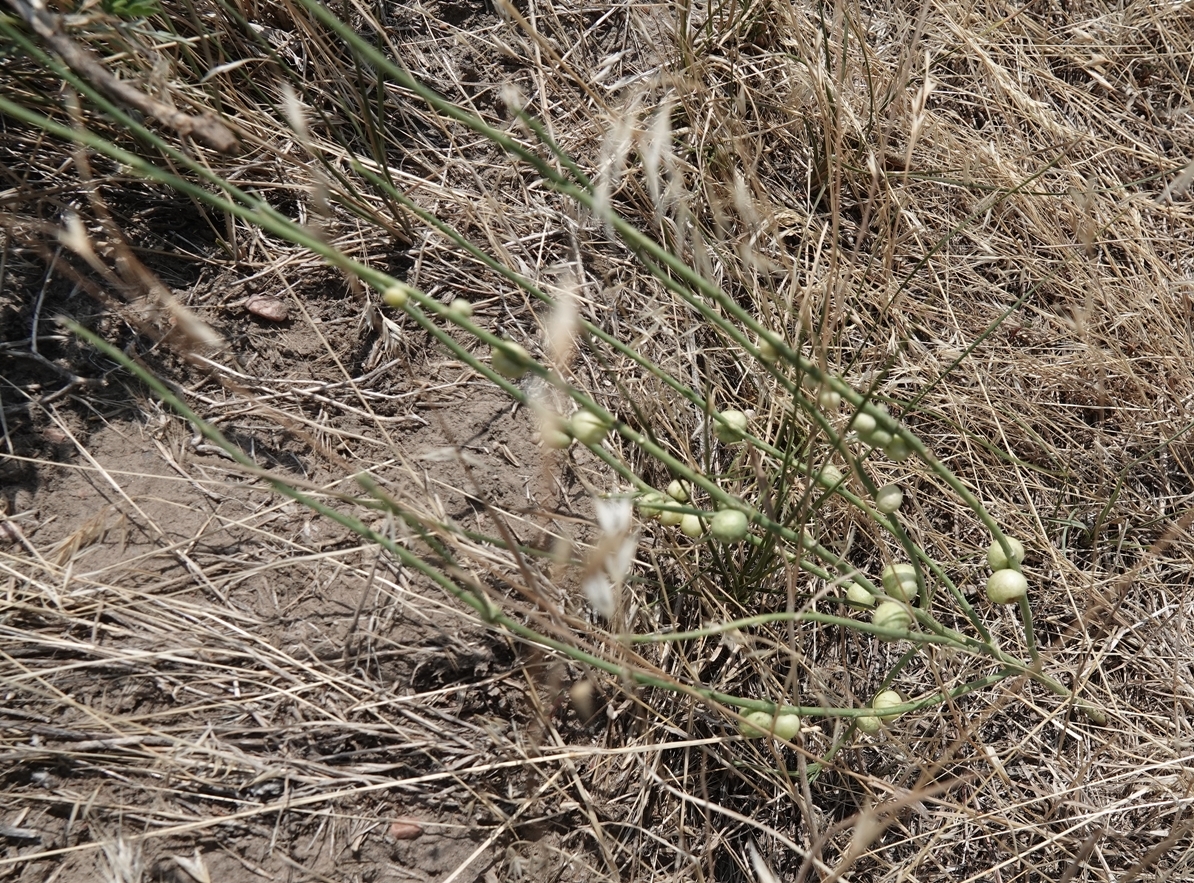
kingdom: Animalia
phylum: Arthropoda
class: Insecta
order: Hymenoptera
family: Cynipidae
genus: Antistrophus
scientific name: Antistrophus
